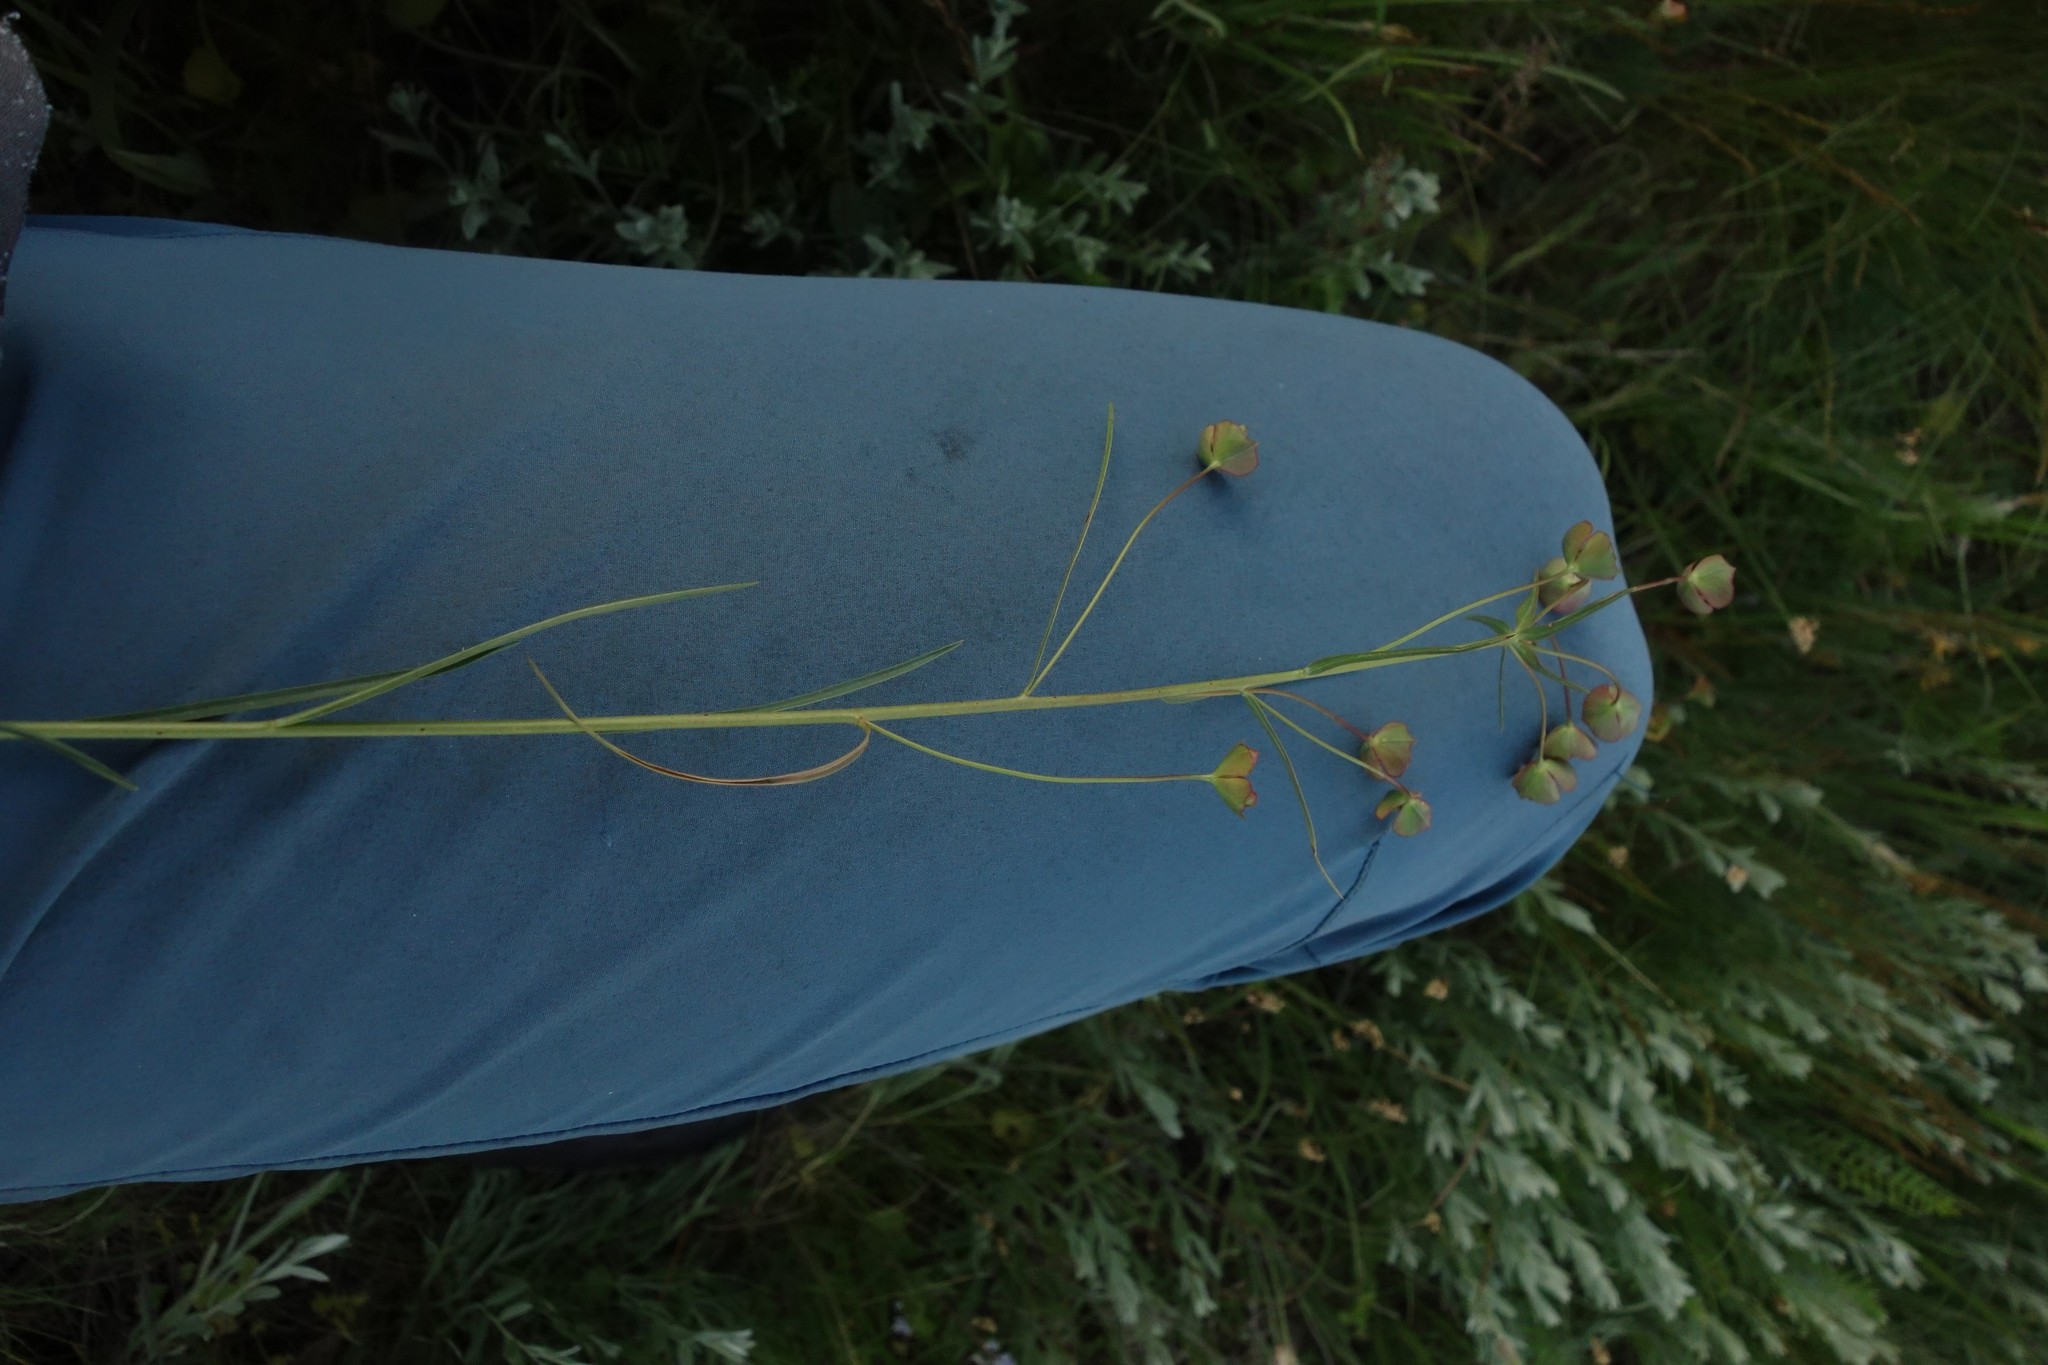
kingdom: Plantae
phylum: Tracheophyta
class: Magnoliopsida
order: Malpighiales
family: Euphorbiaceae
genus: Euphorbia
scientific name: Euphorbia leptocaula
